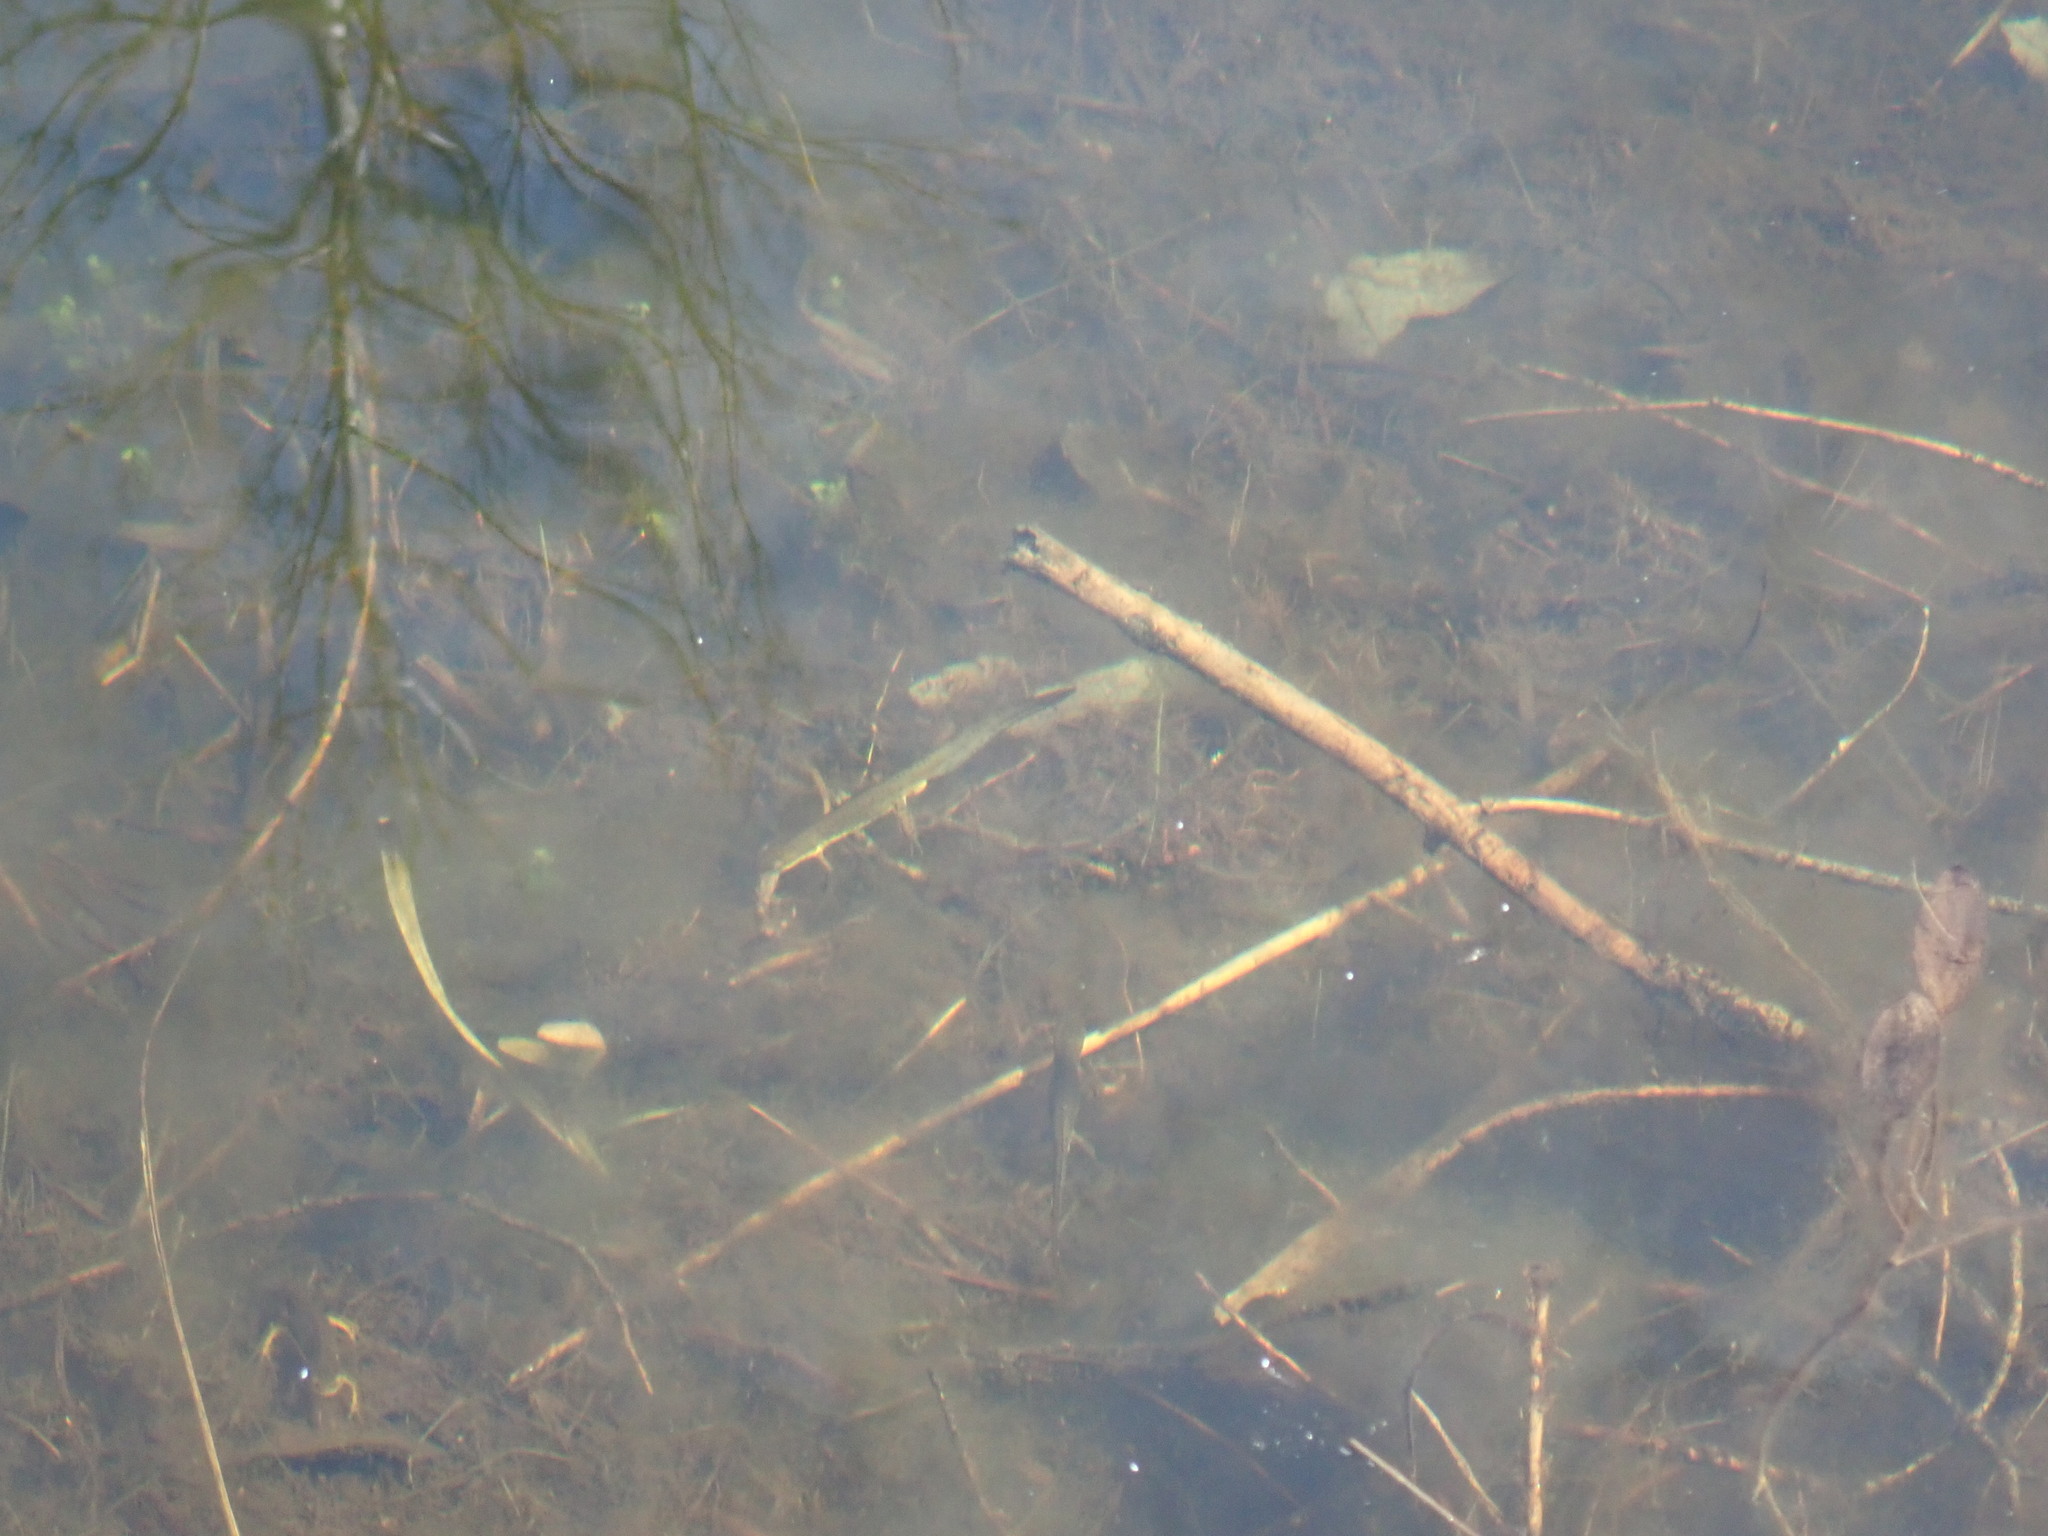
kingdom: Animalia
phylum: Chordata
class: Amphibia
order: Caudata
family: Salamandridae
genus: Notophthalmus
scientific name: Notophthalmus viridescens
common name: Eastern newt
